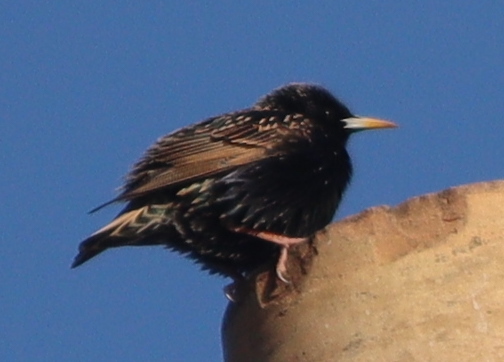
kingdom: Animalia
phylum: Chordata
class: Aves
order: Passeriformes
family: Sturnidae
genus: Sturnus
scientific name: Sturnus vulgaris
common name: Common starling
